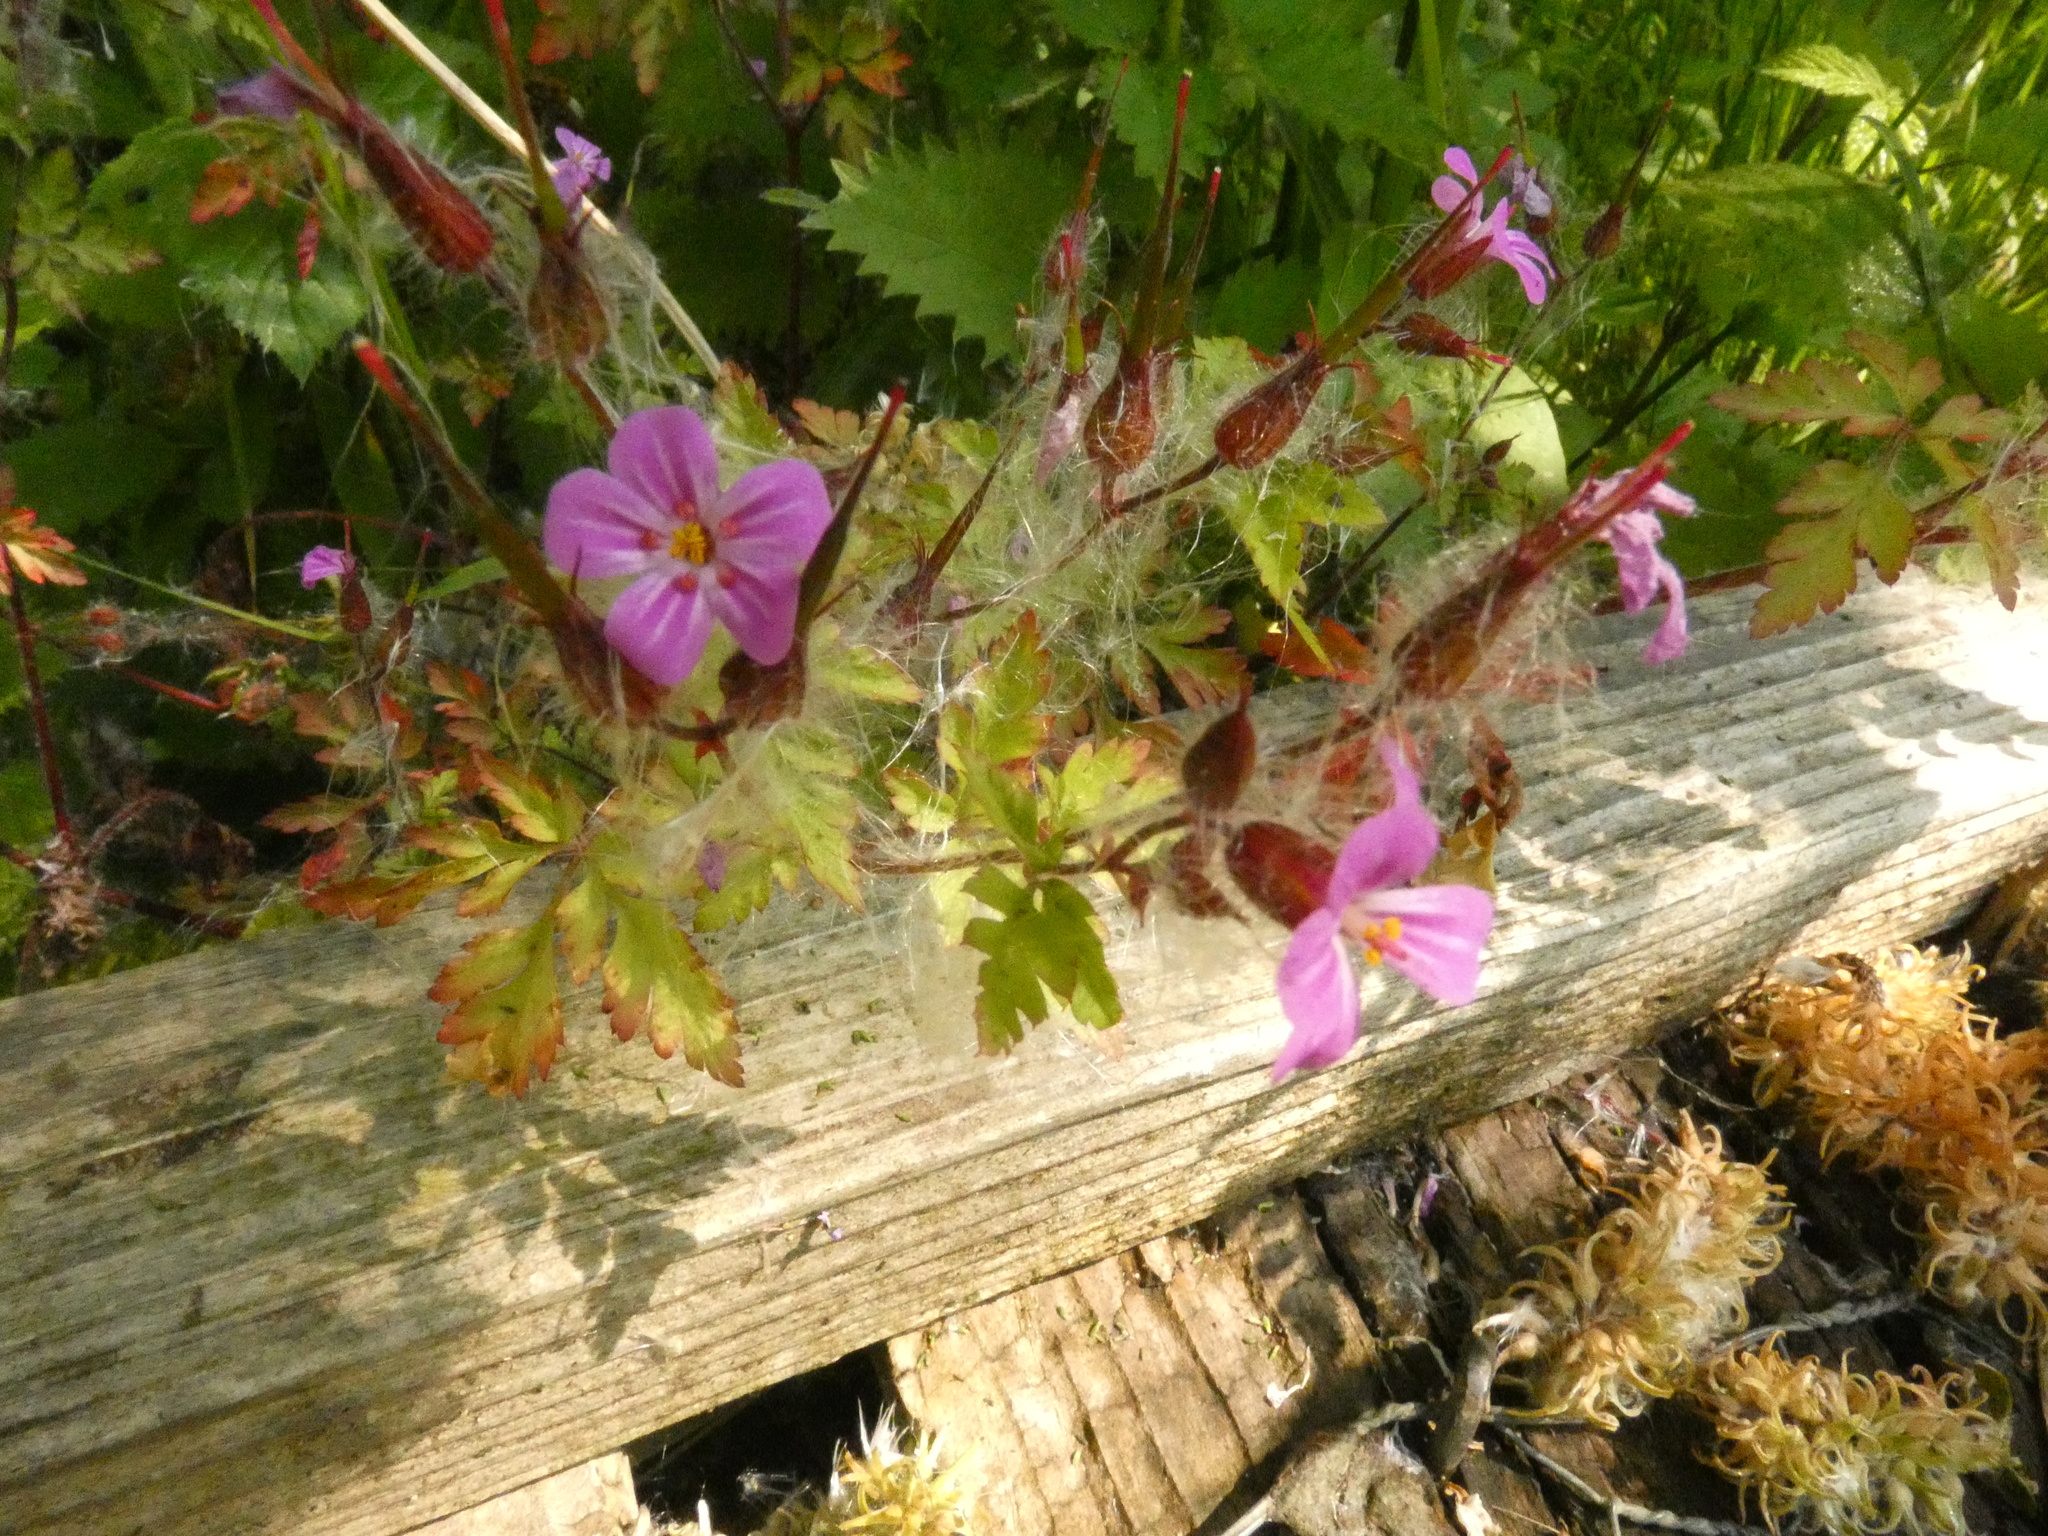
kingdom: Plantae
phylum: Tracheophyta
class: Magnoliopsida
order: Geraniales
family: Geraniaceae
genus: Geranium
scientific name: Geranium robertianum
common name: Herb-robert
